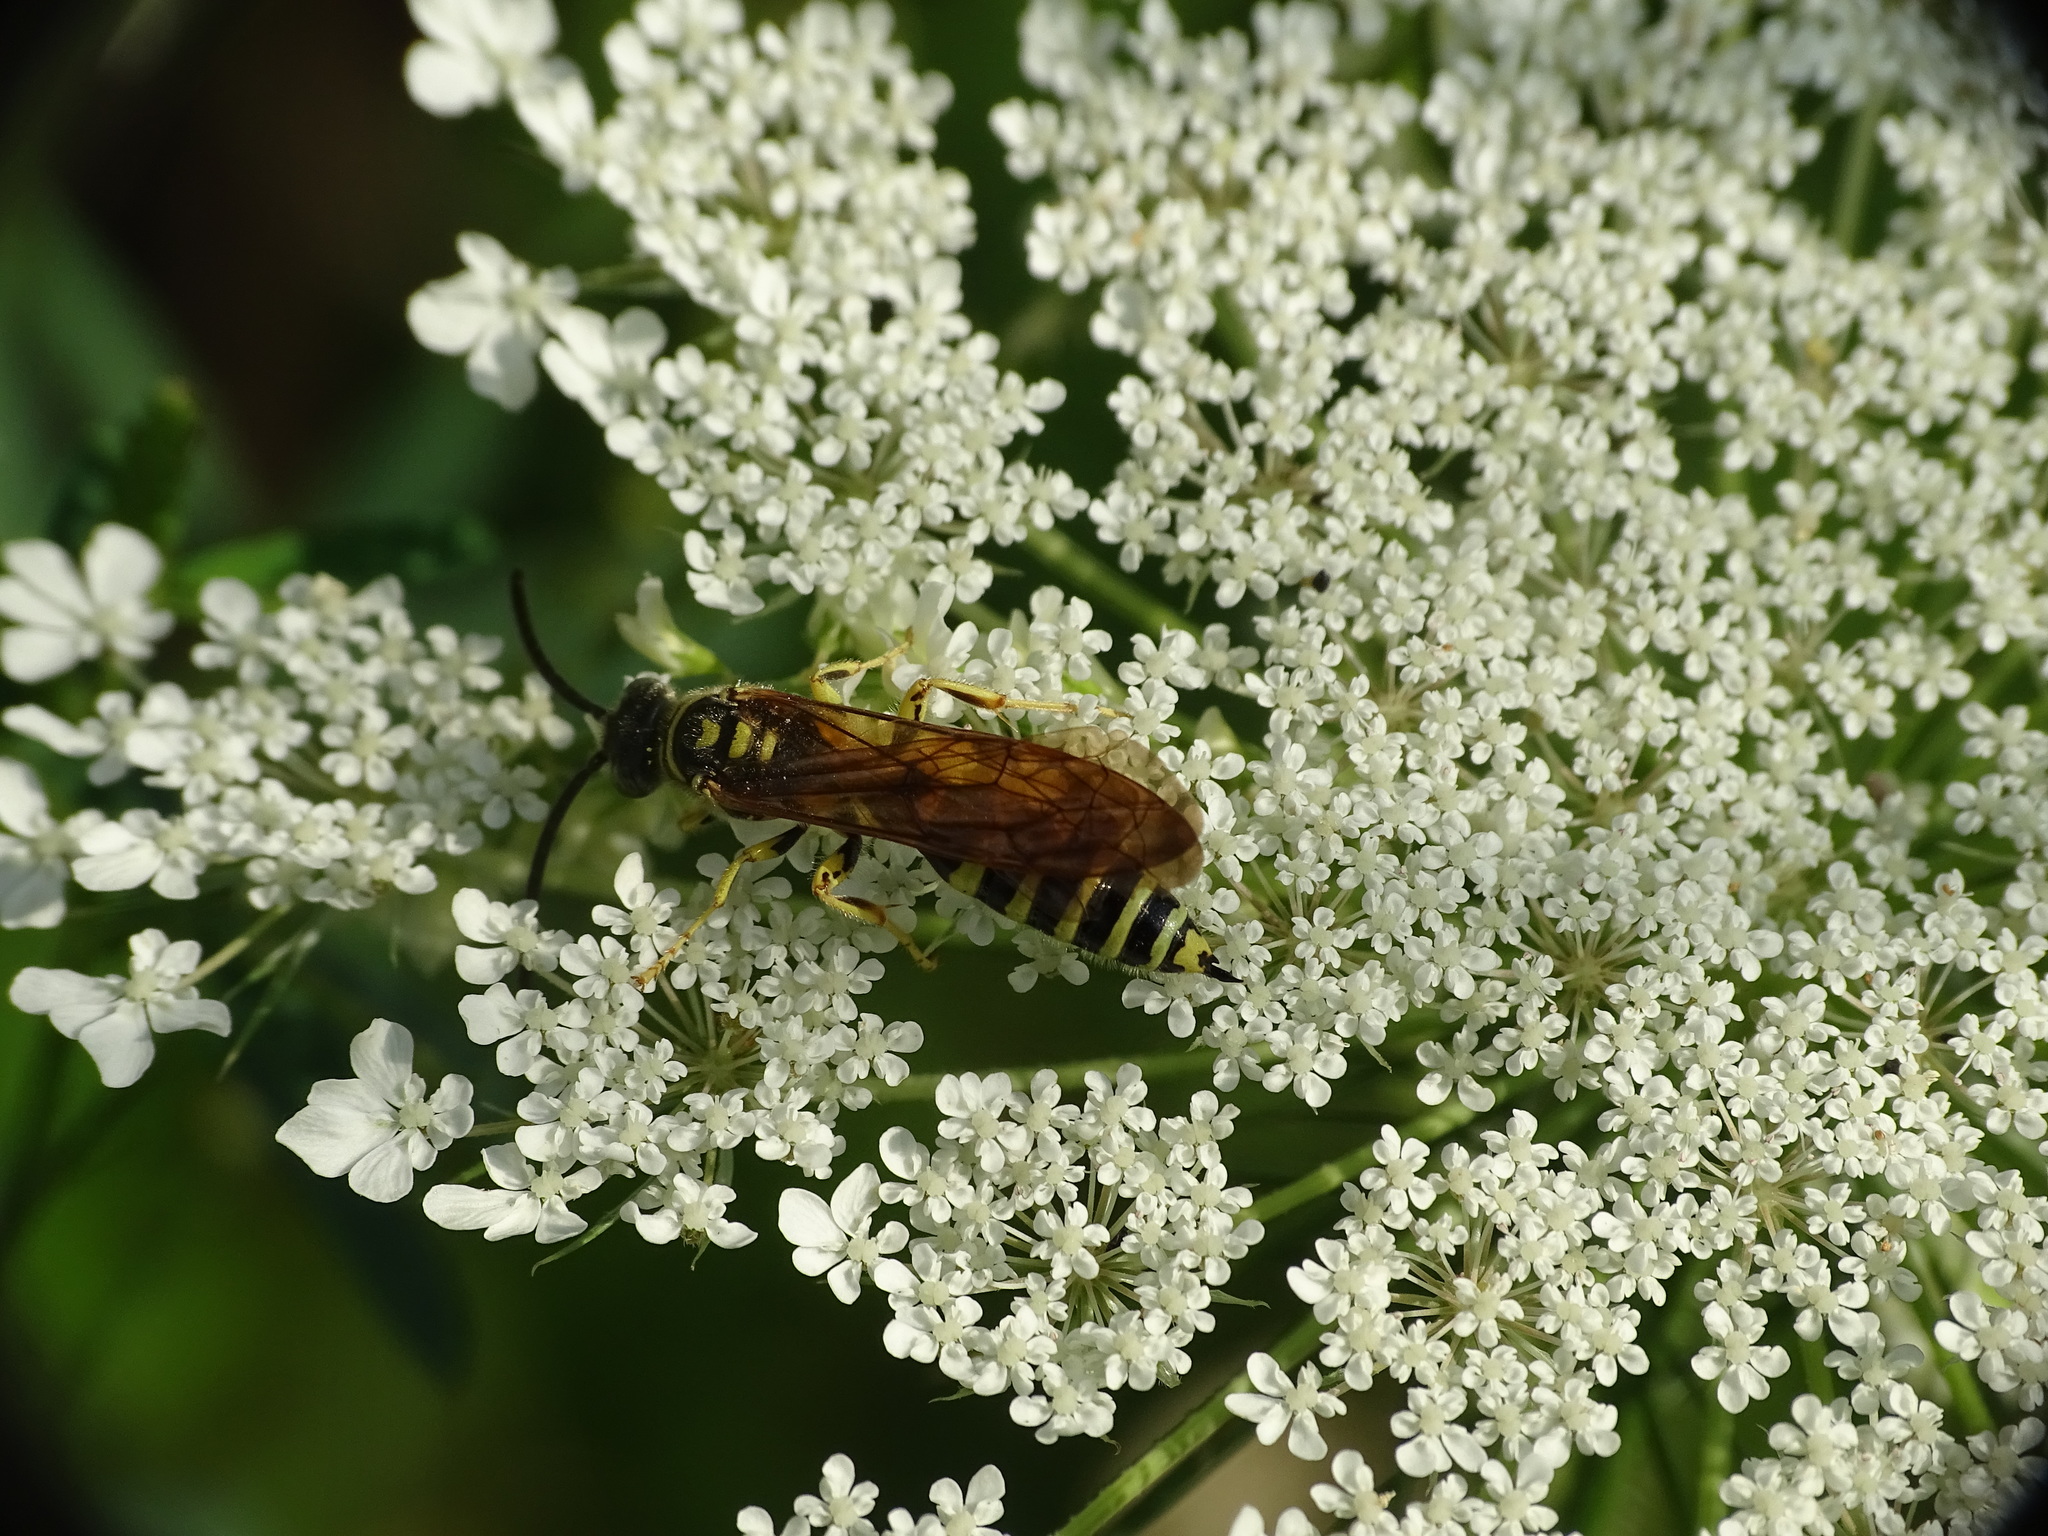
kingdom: Animalia
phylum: Arthropoda
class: Insecta
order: Hymenoptera
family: Tiphiidae
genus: Myzinum
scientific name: Myzinum quinquecinctum
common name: Five-banded thynnid wasp
